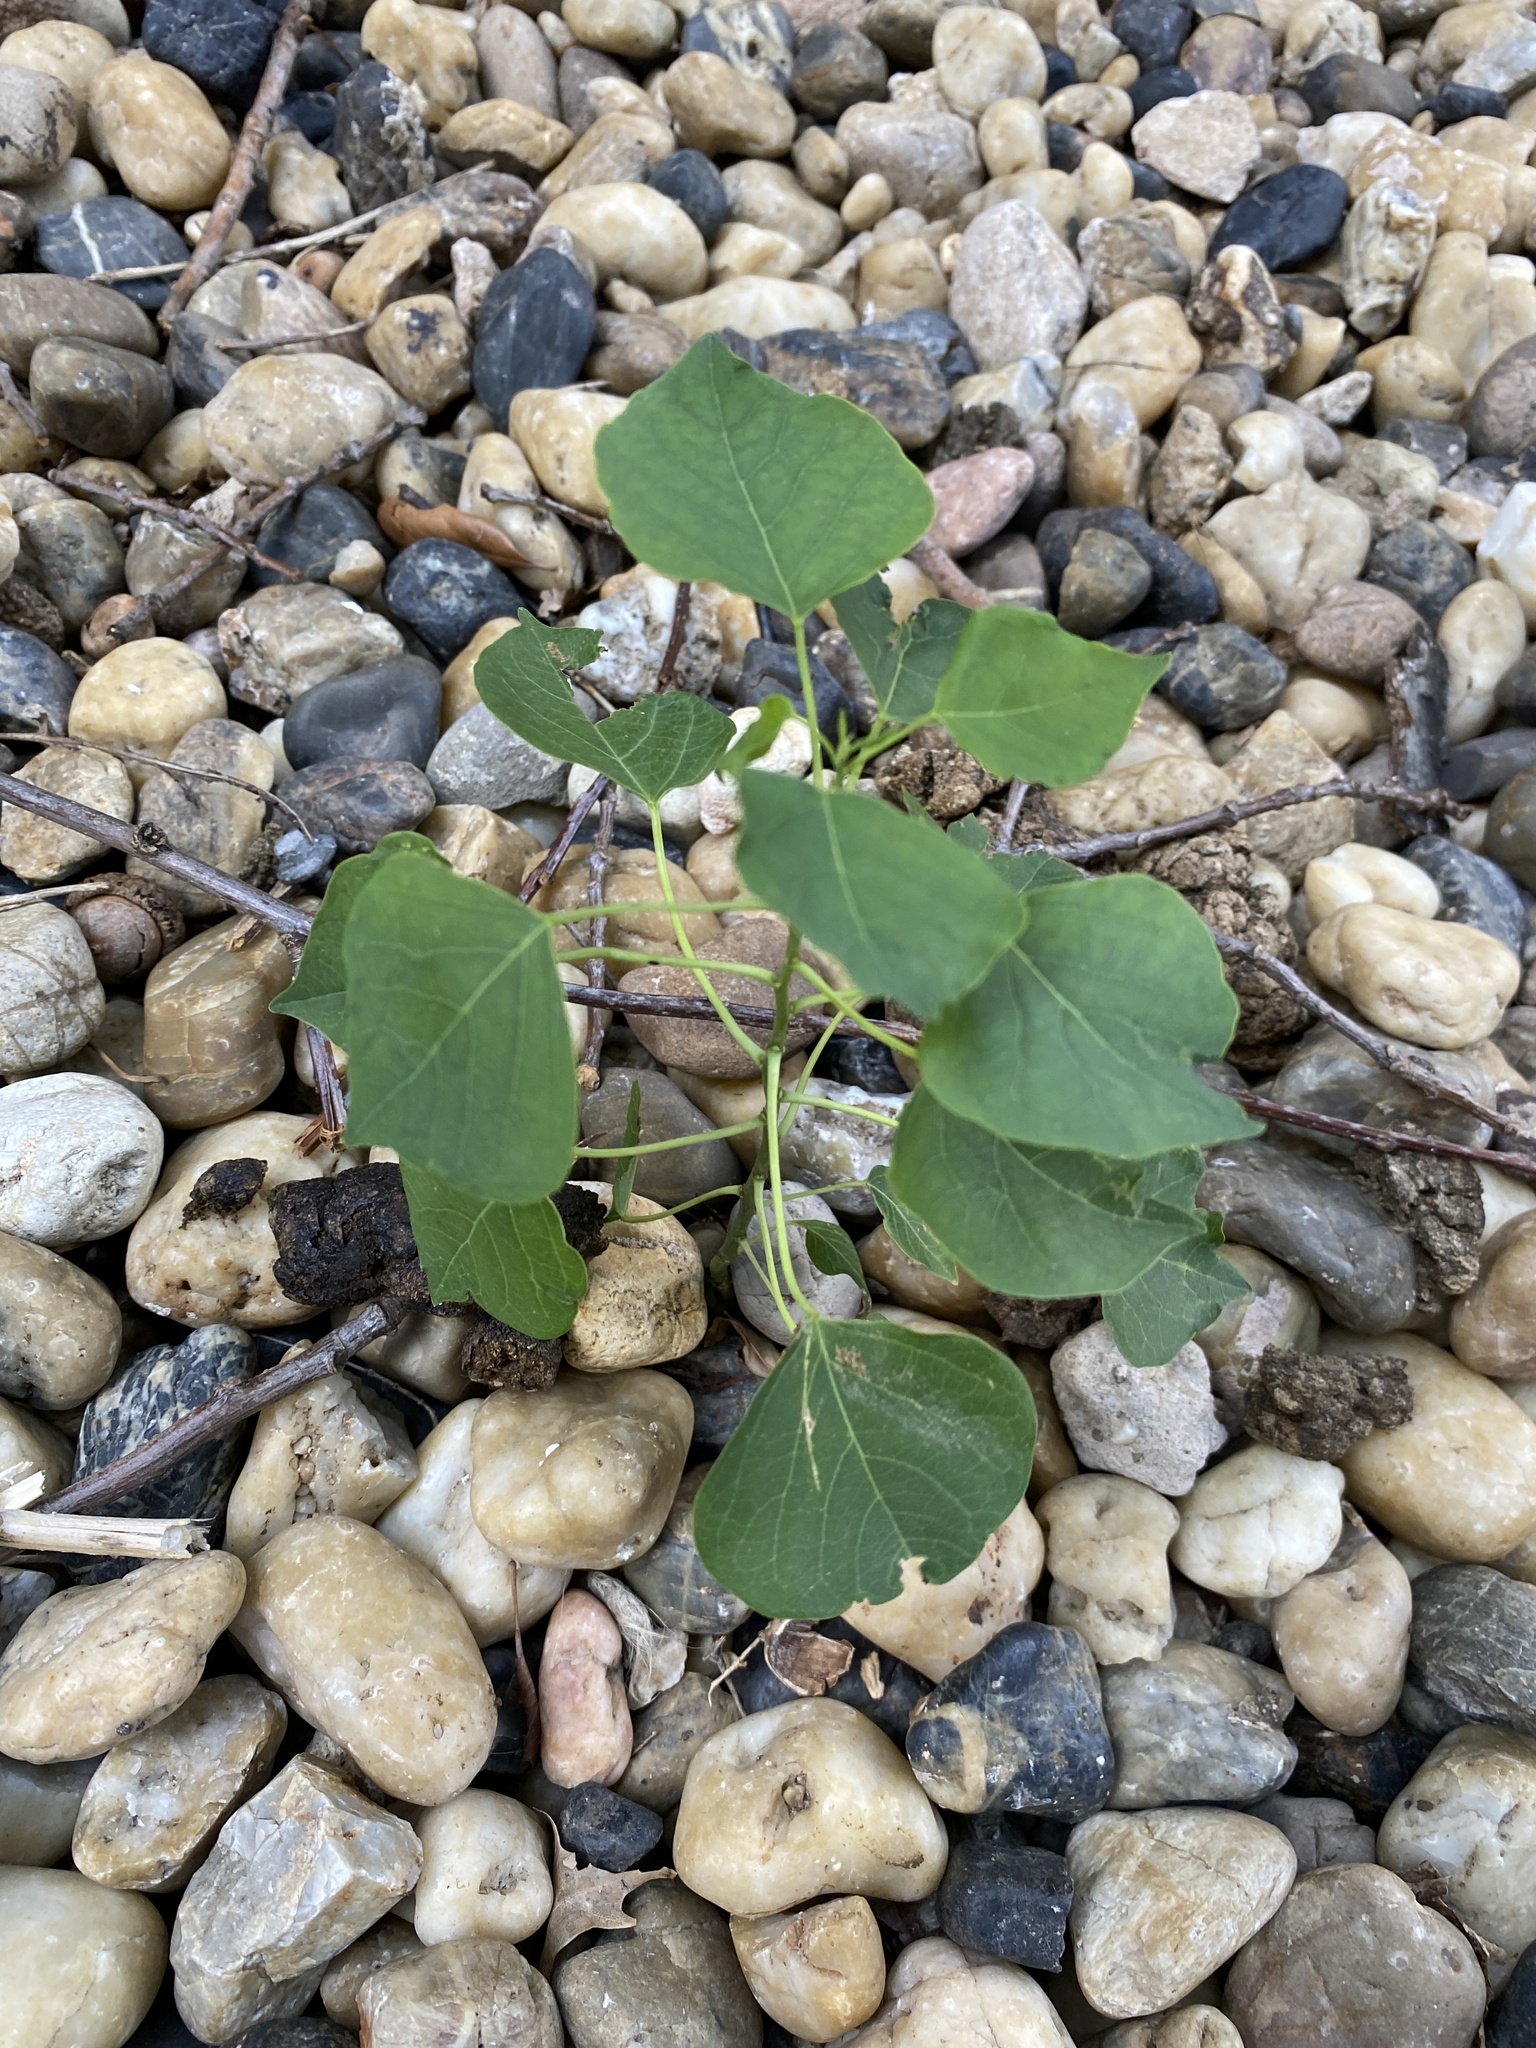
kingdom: Plantae
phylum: Tracheophyta
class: Magnoliopsida
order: Malpighiales
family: Euphorbiaceae
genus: Triadica
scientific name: Triadica sebifera
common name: Chinese tallow
